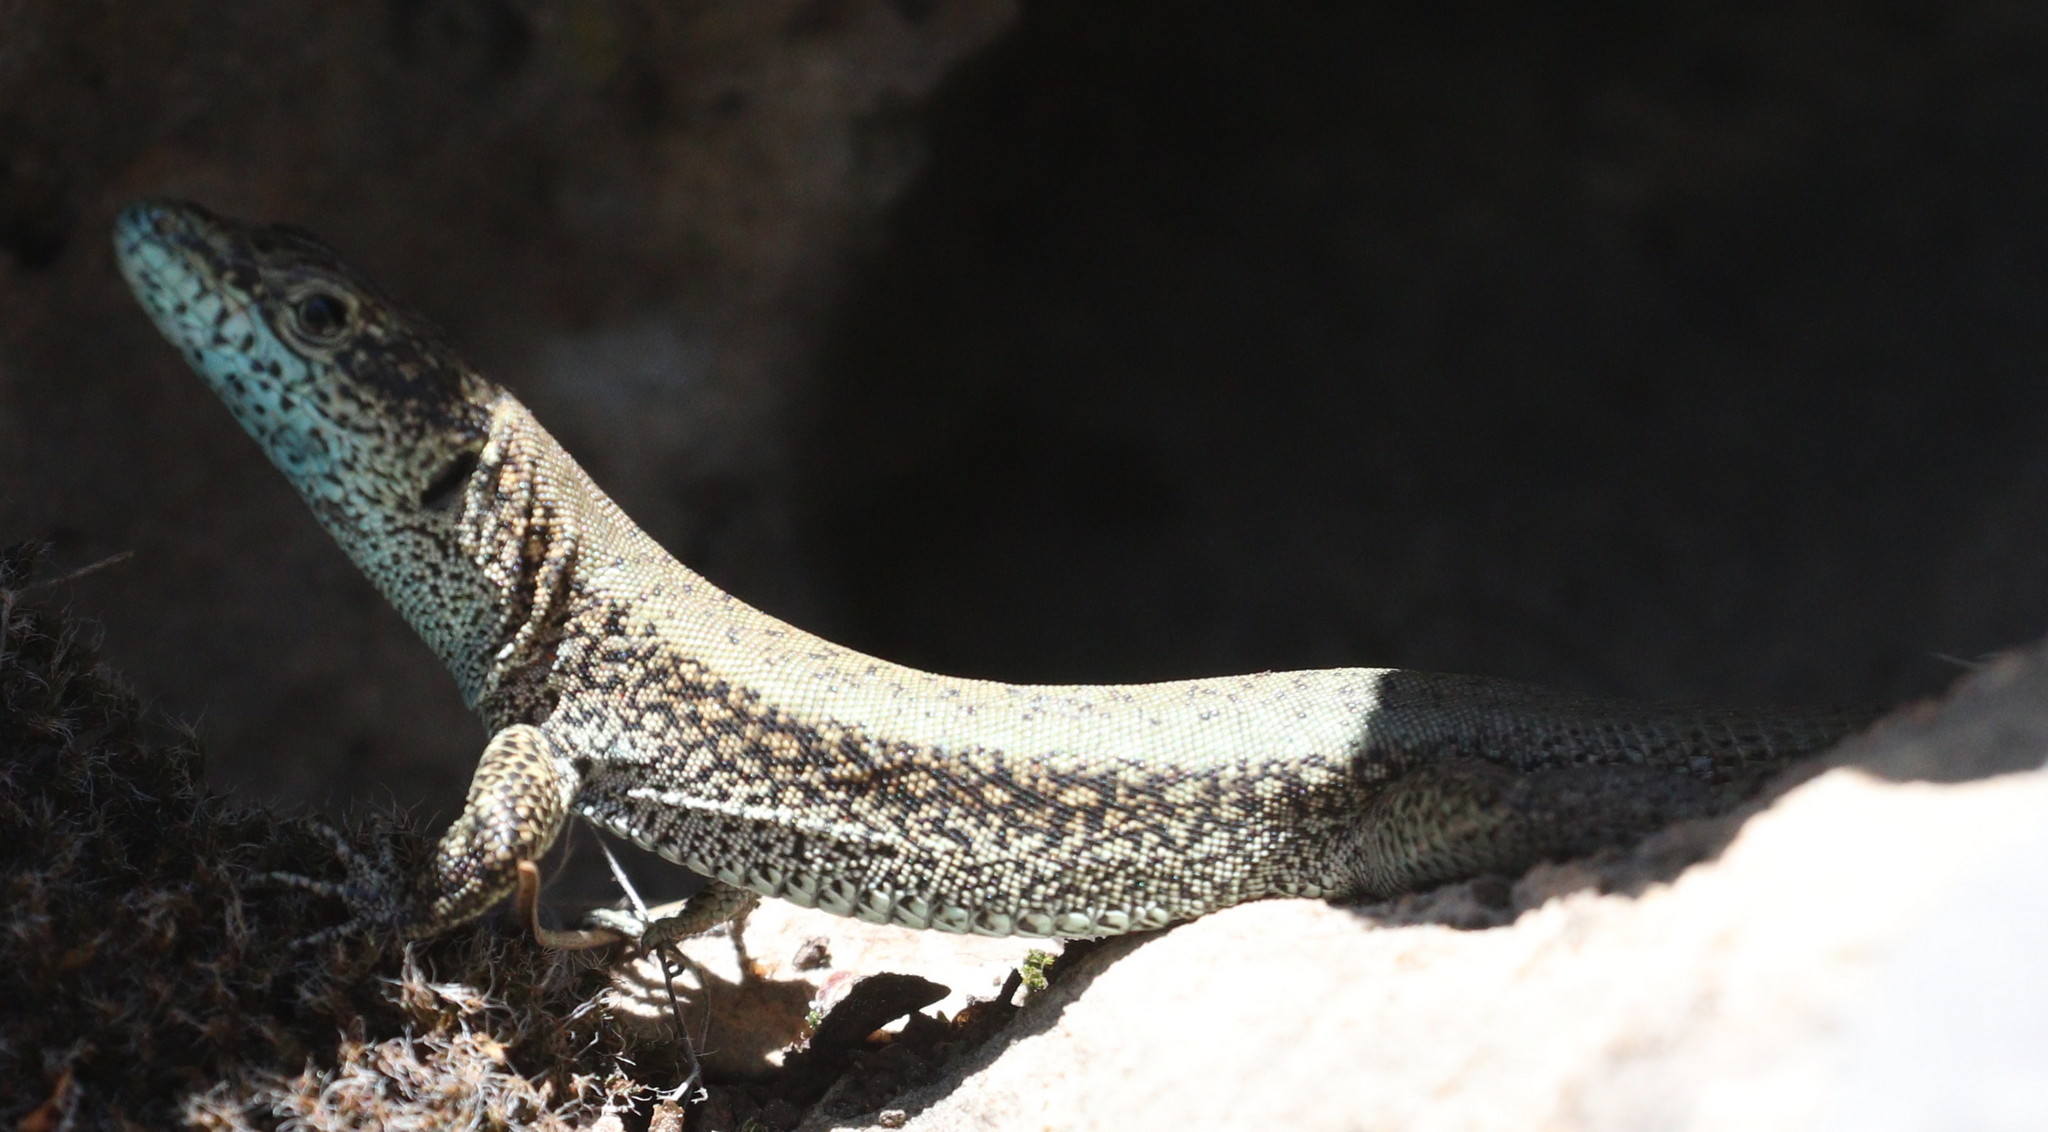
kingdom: Animalia
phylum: Chordata
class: Squamata
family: Lacertidae
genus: Anatololacerta
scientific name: Anatololacerta danfordi
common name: Danford's lizard
